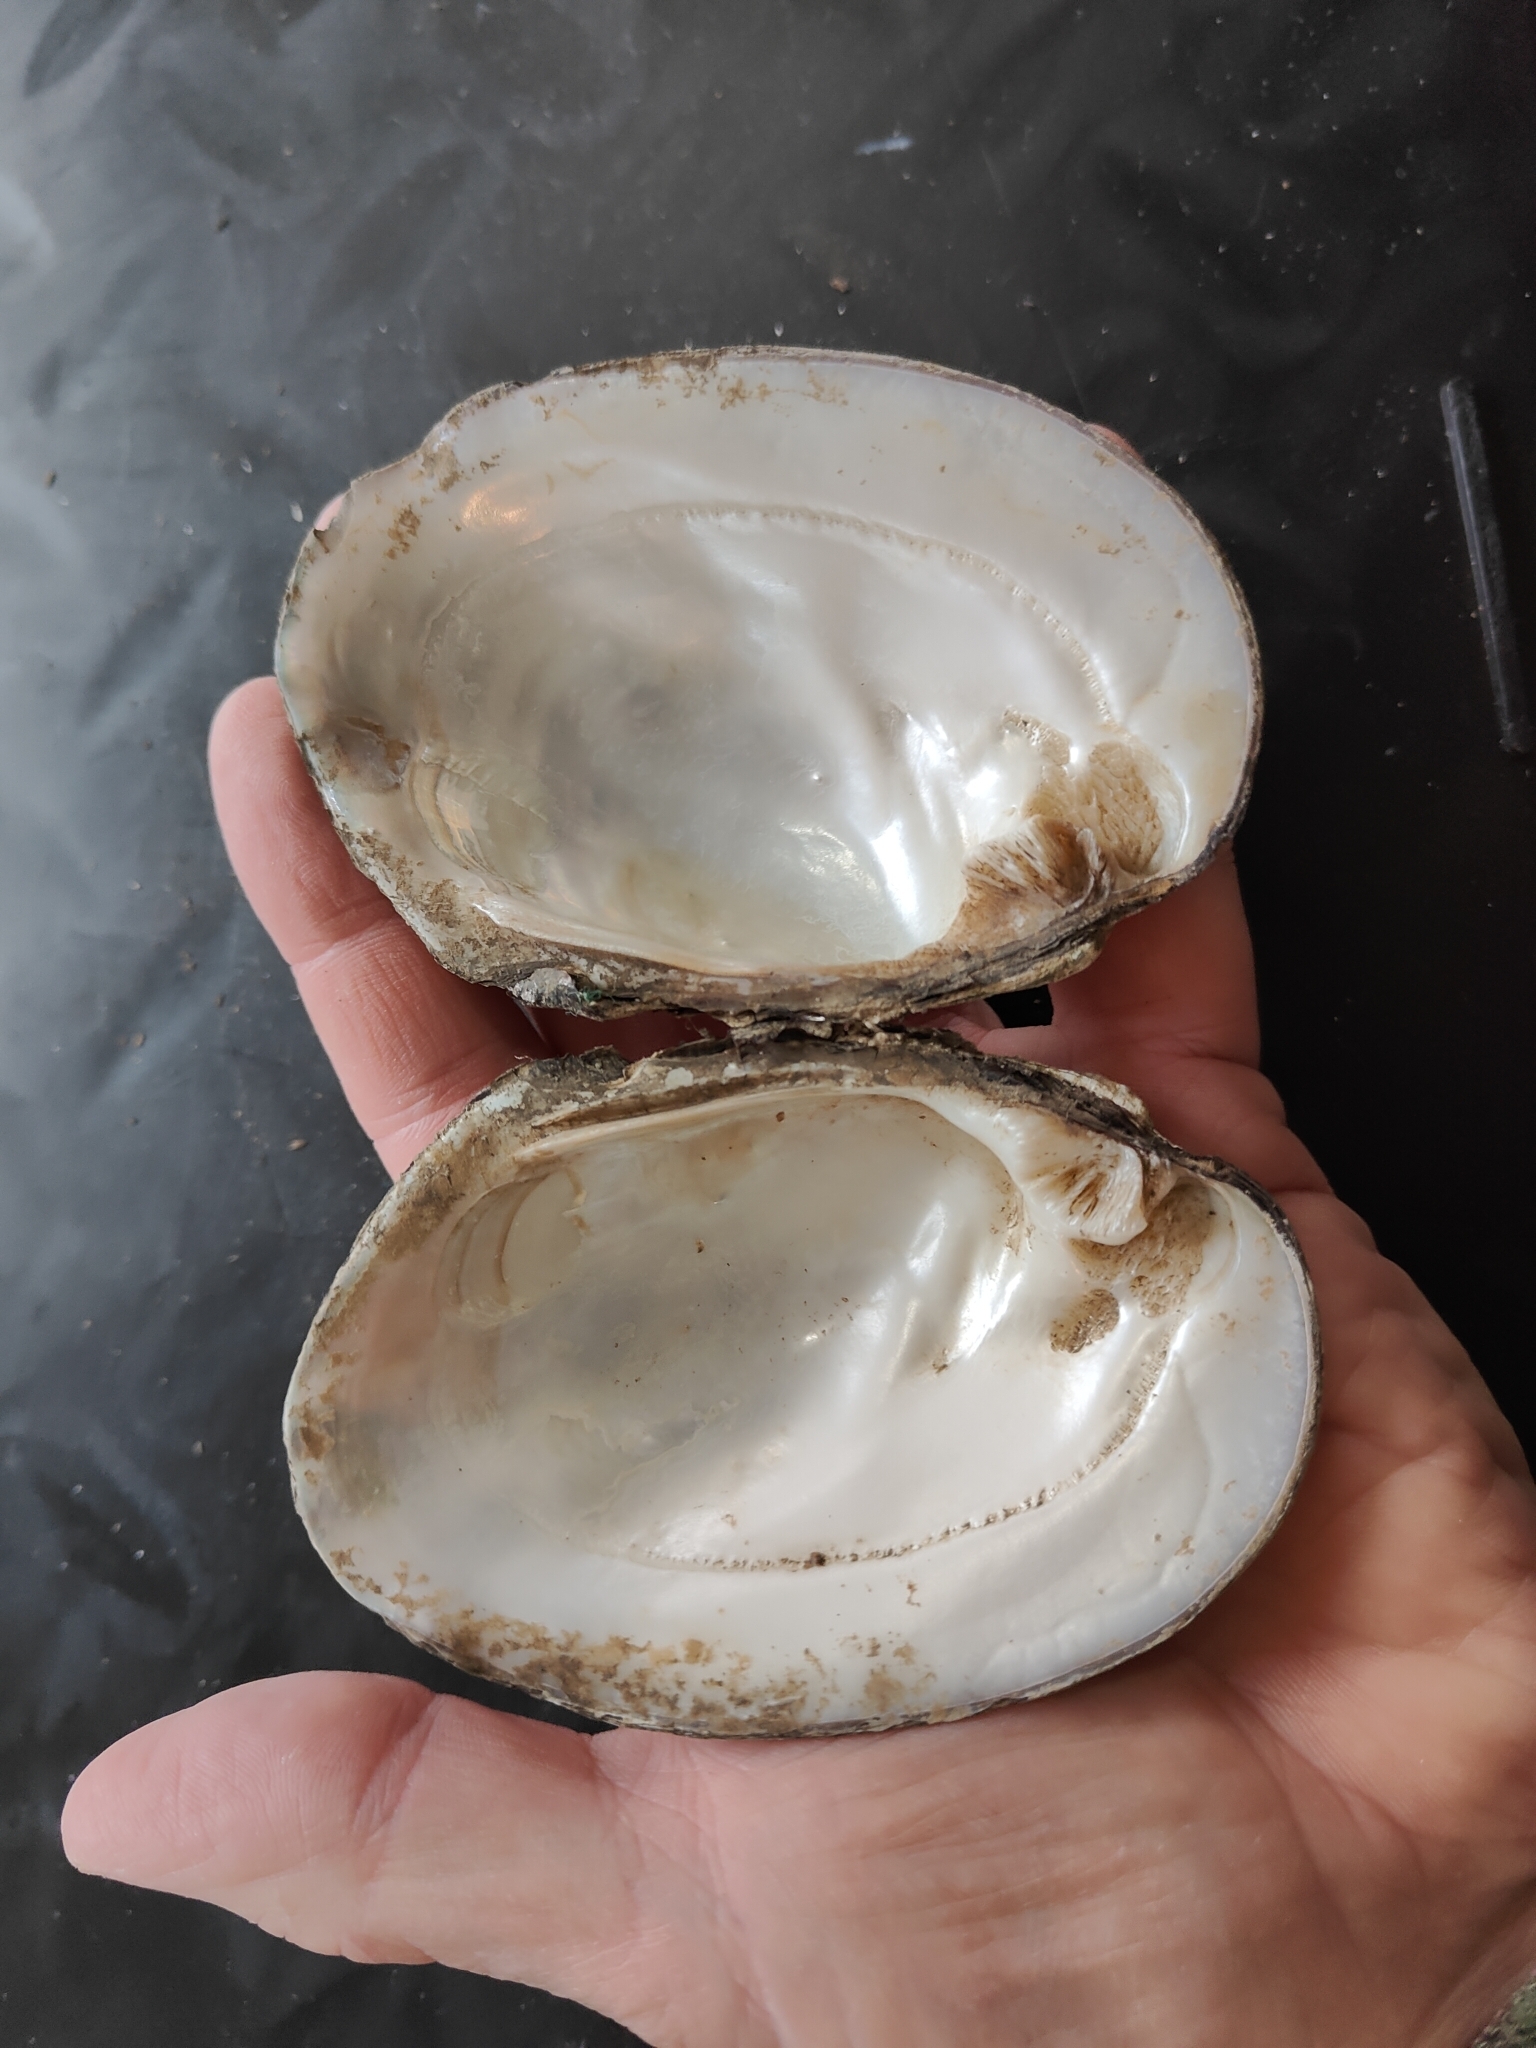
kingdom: Animalia
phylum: Mollusca
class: Bivalvia
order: Unionida
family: Unionidae
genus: Amblema
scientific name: Amblema plicata
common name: Threeridge
